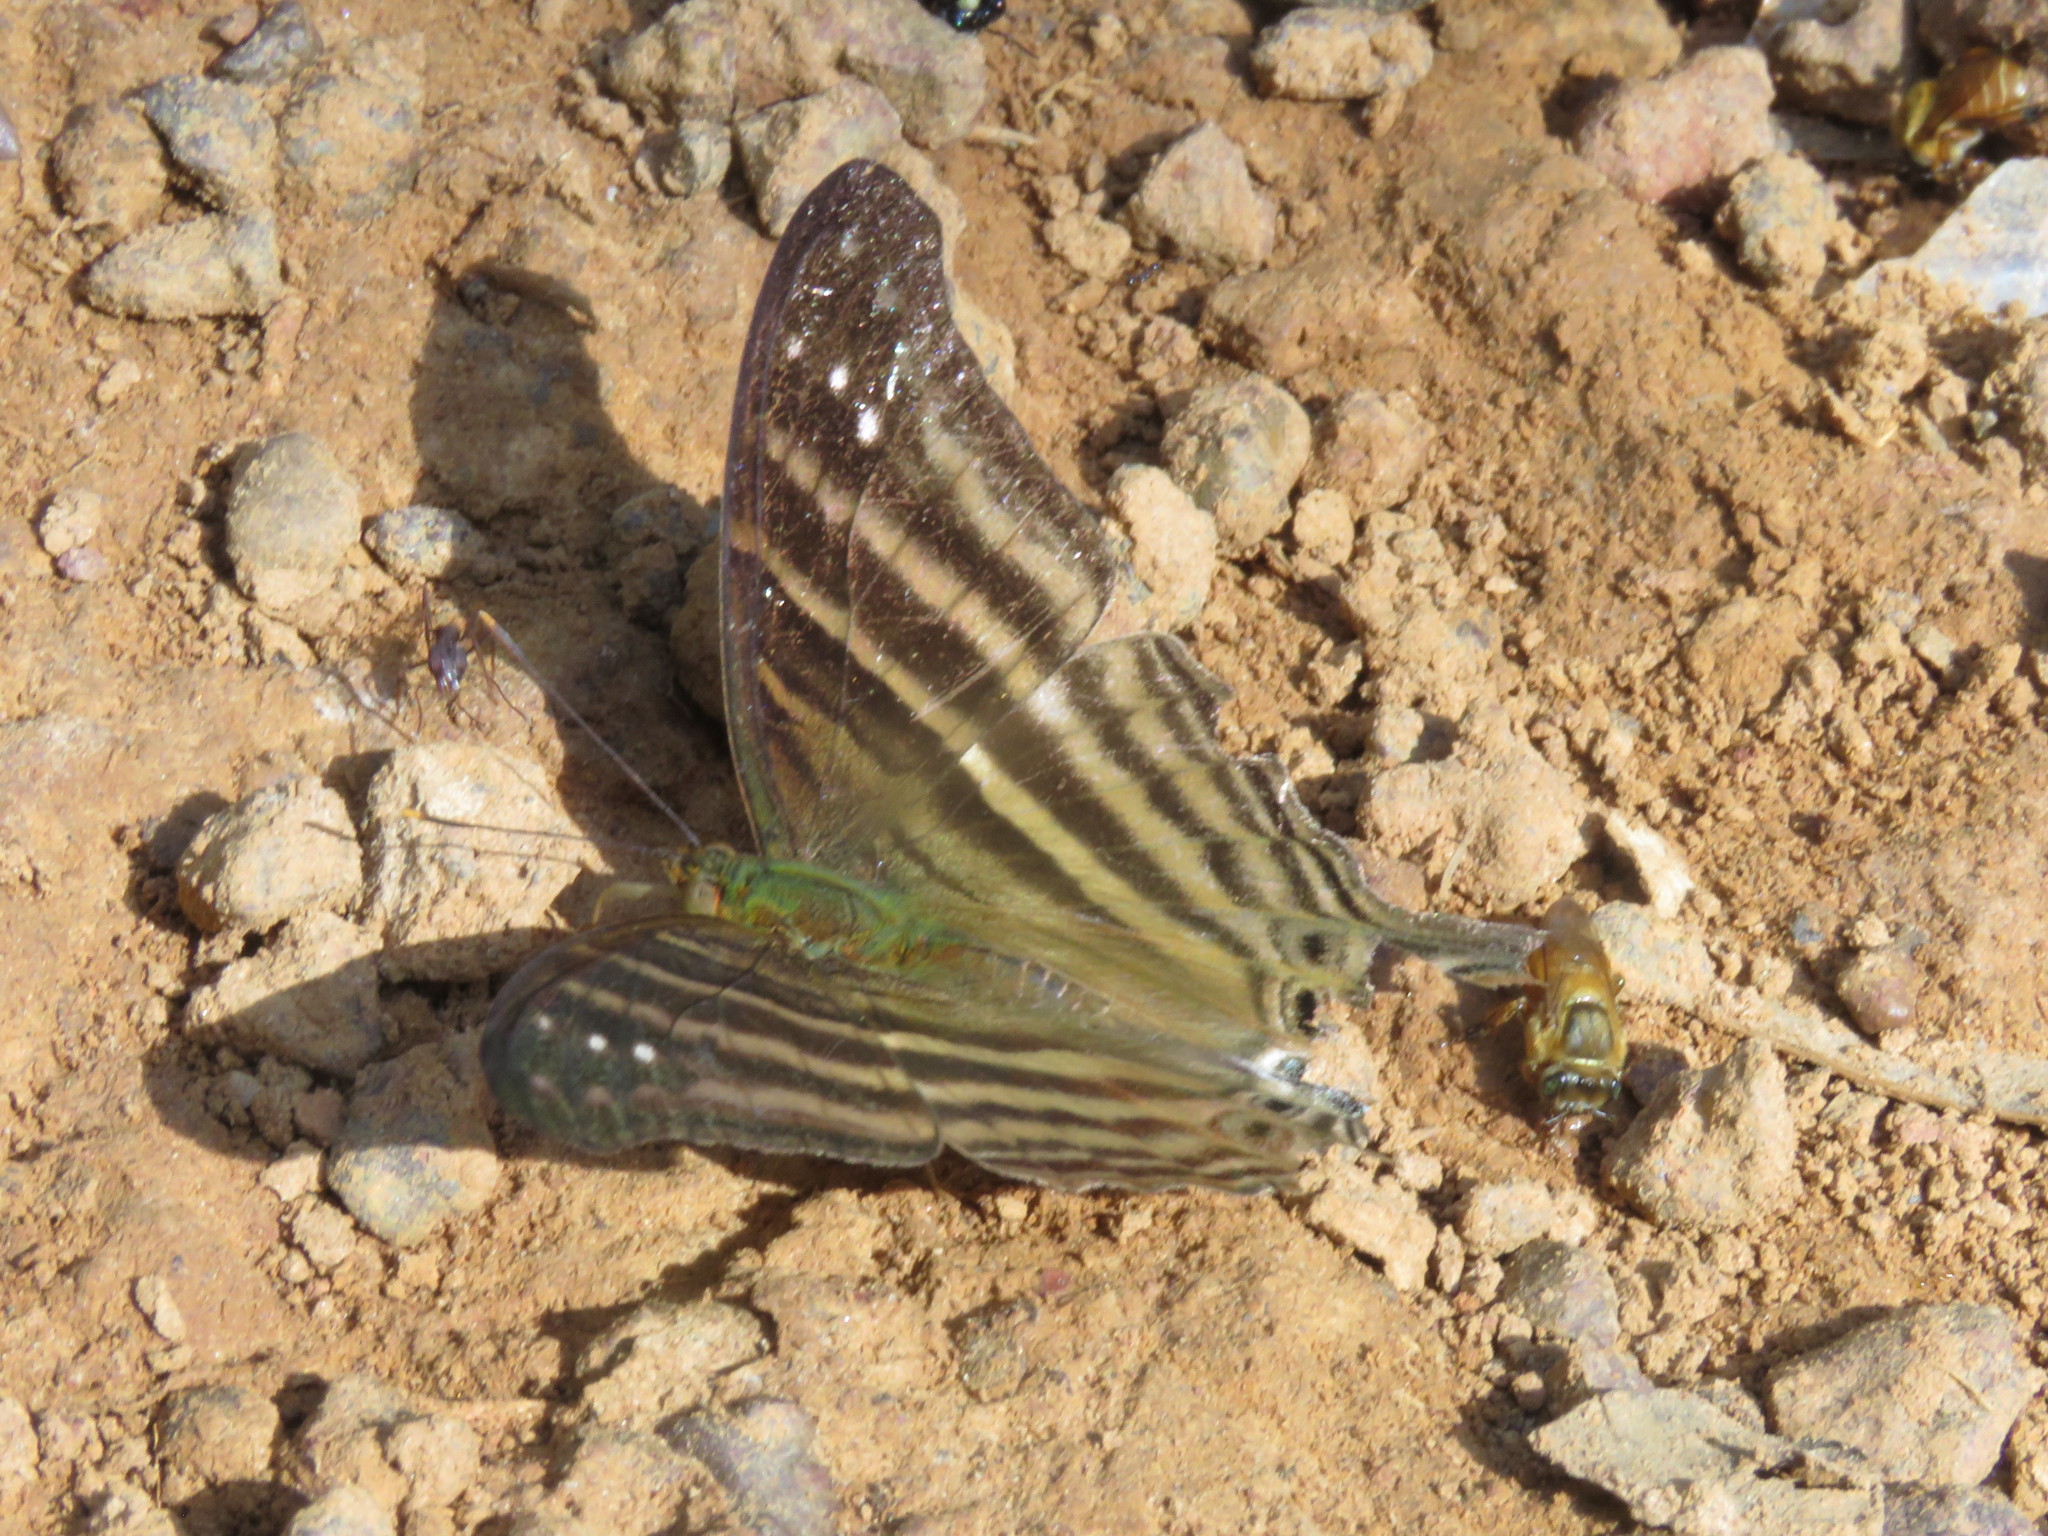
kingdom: Animalia
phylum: Arthropoda
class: Insecta
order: Lepidoptera
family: Nymphalidae
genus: Marpesia
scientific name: Marpesia chiron
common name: Many-banded daggerwing
